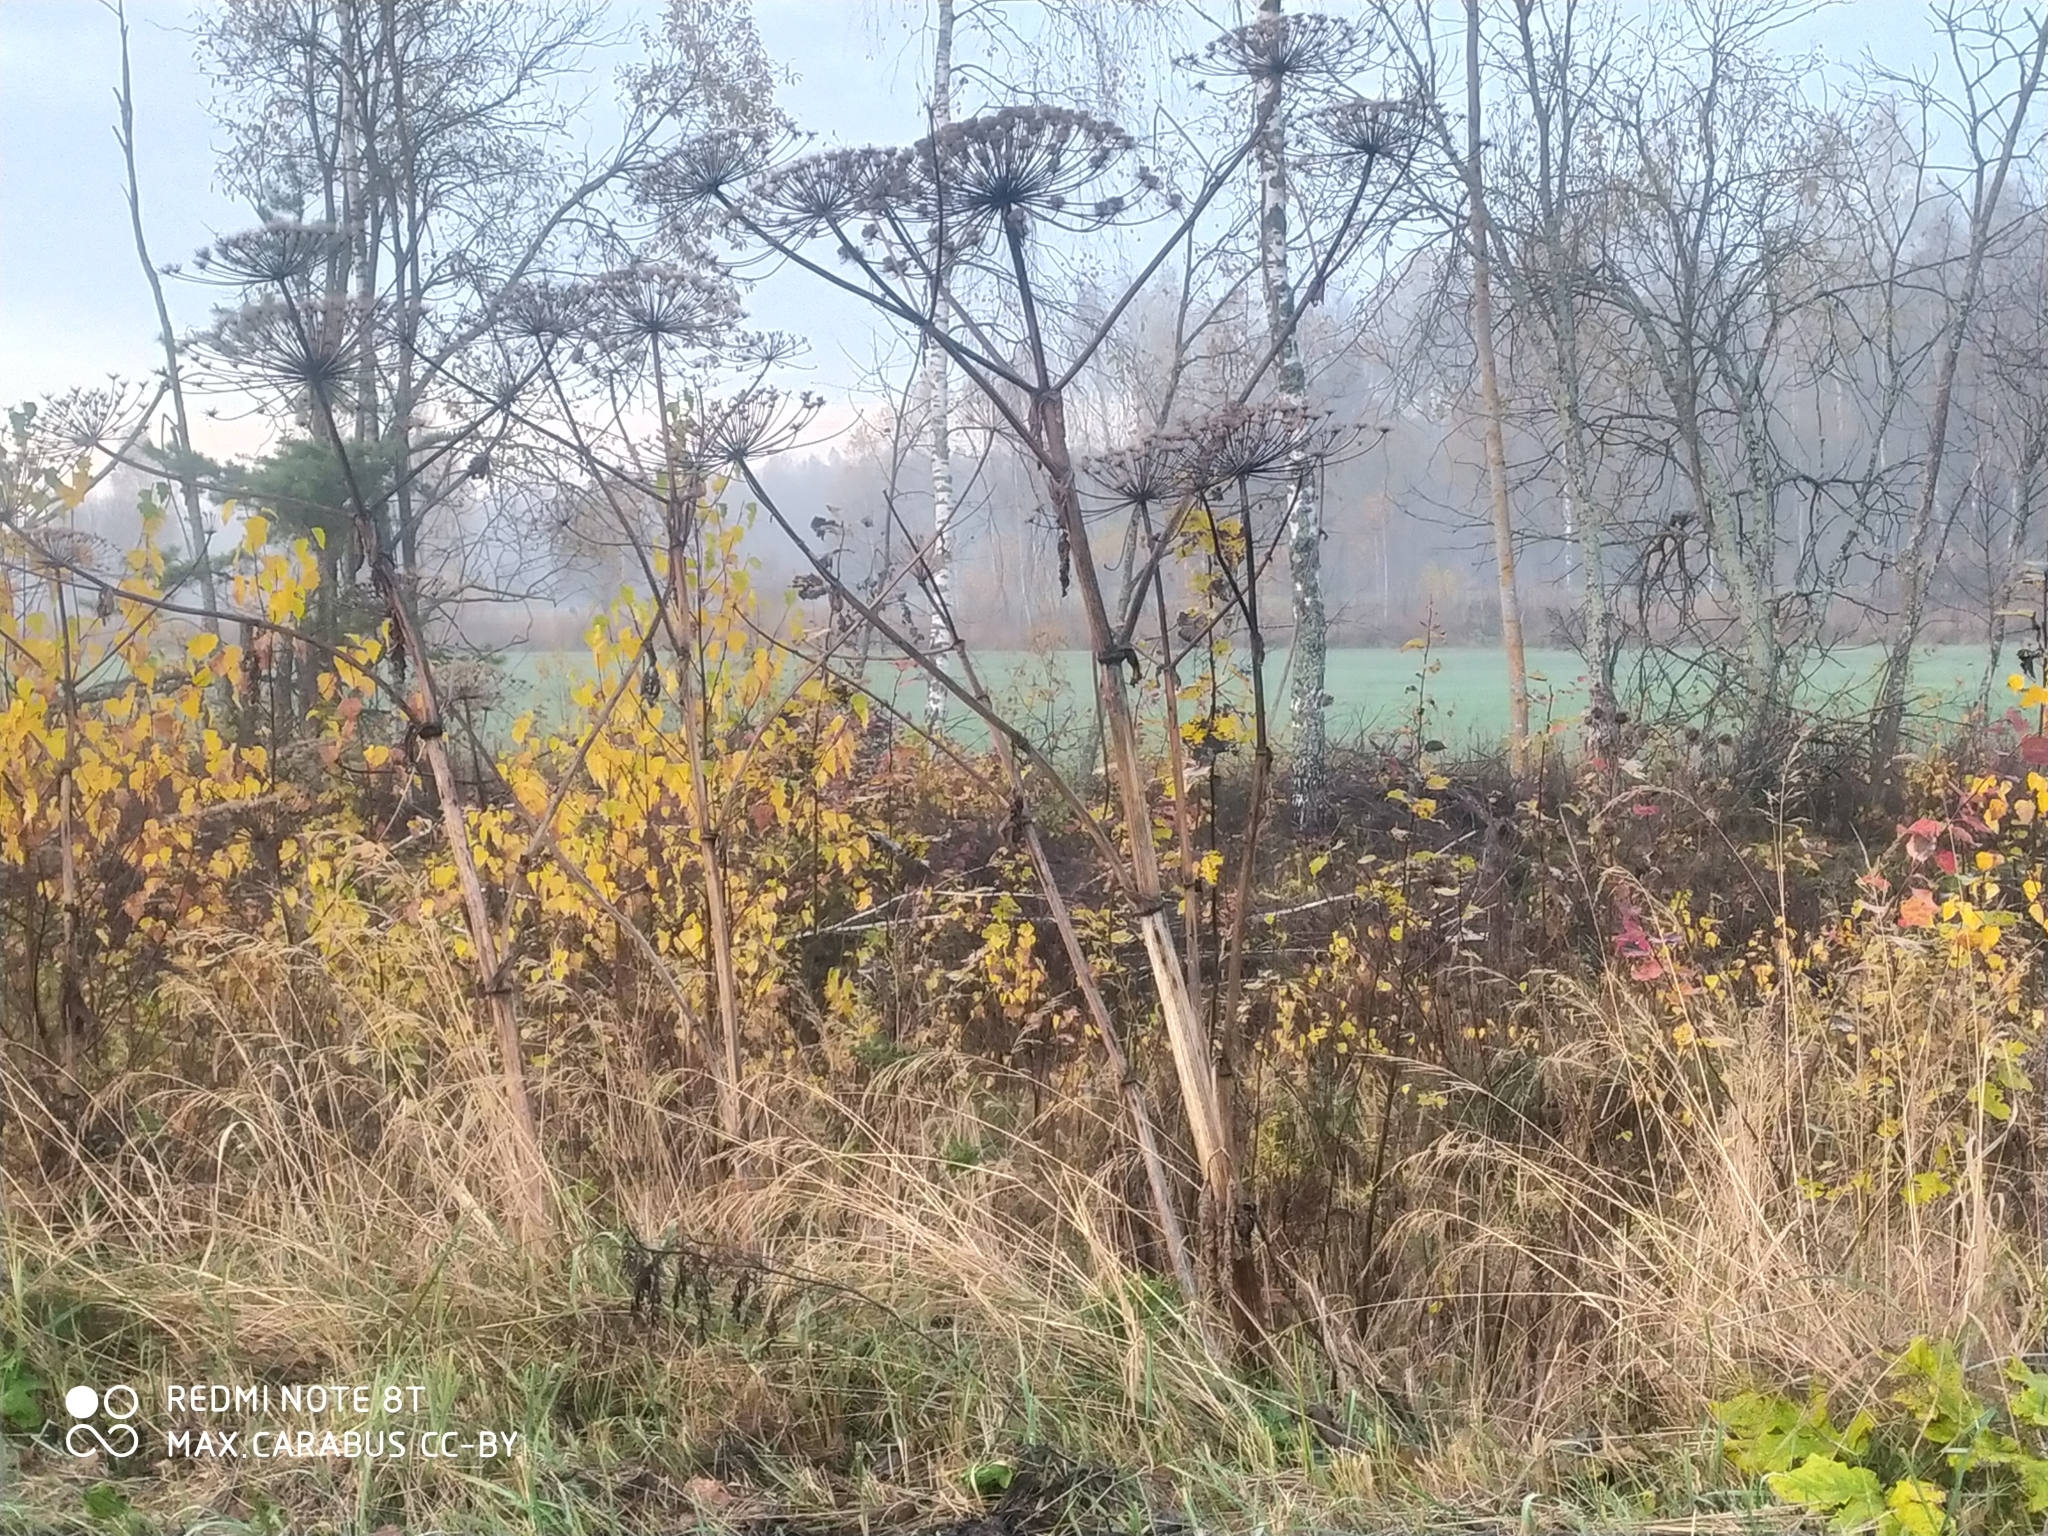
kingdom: Plantae
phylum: Tracheophyta
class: Magnoliopsida
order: Apiales
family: Apiaceae
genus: Heracleum
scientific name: Heracleum sosnowskyi
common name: Sosnowsky's hogweed
